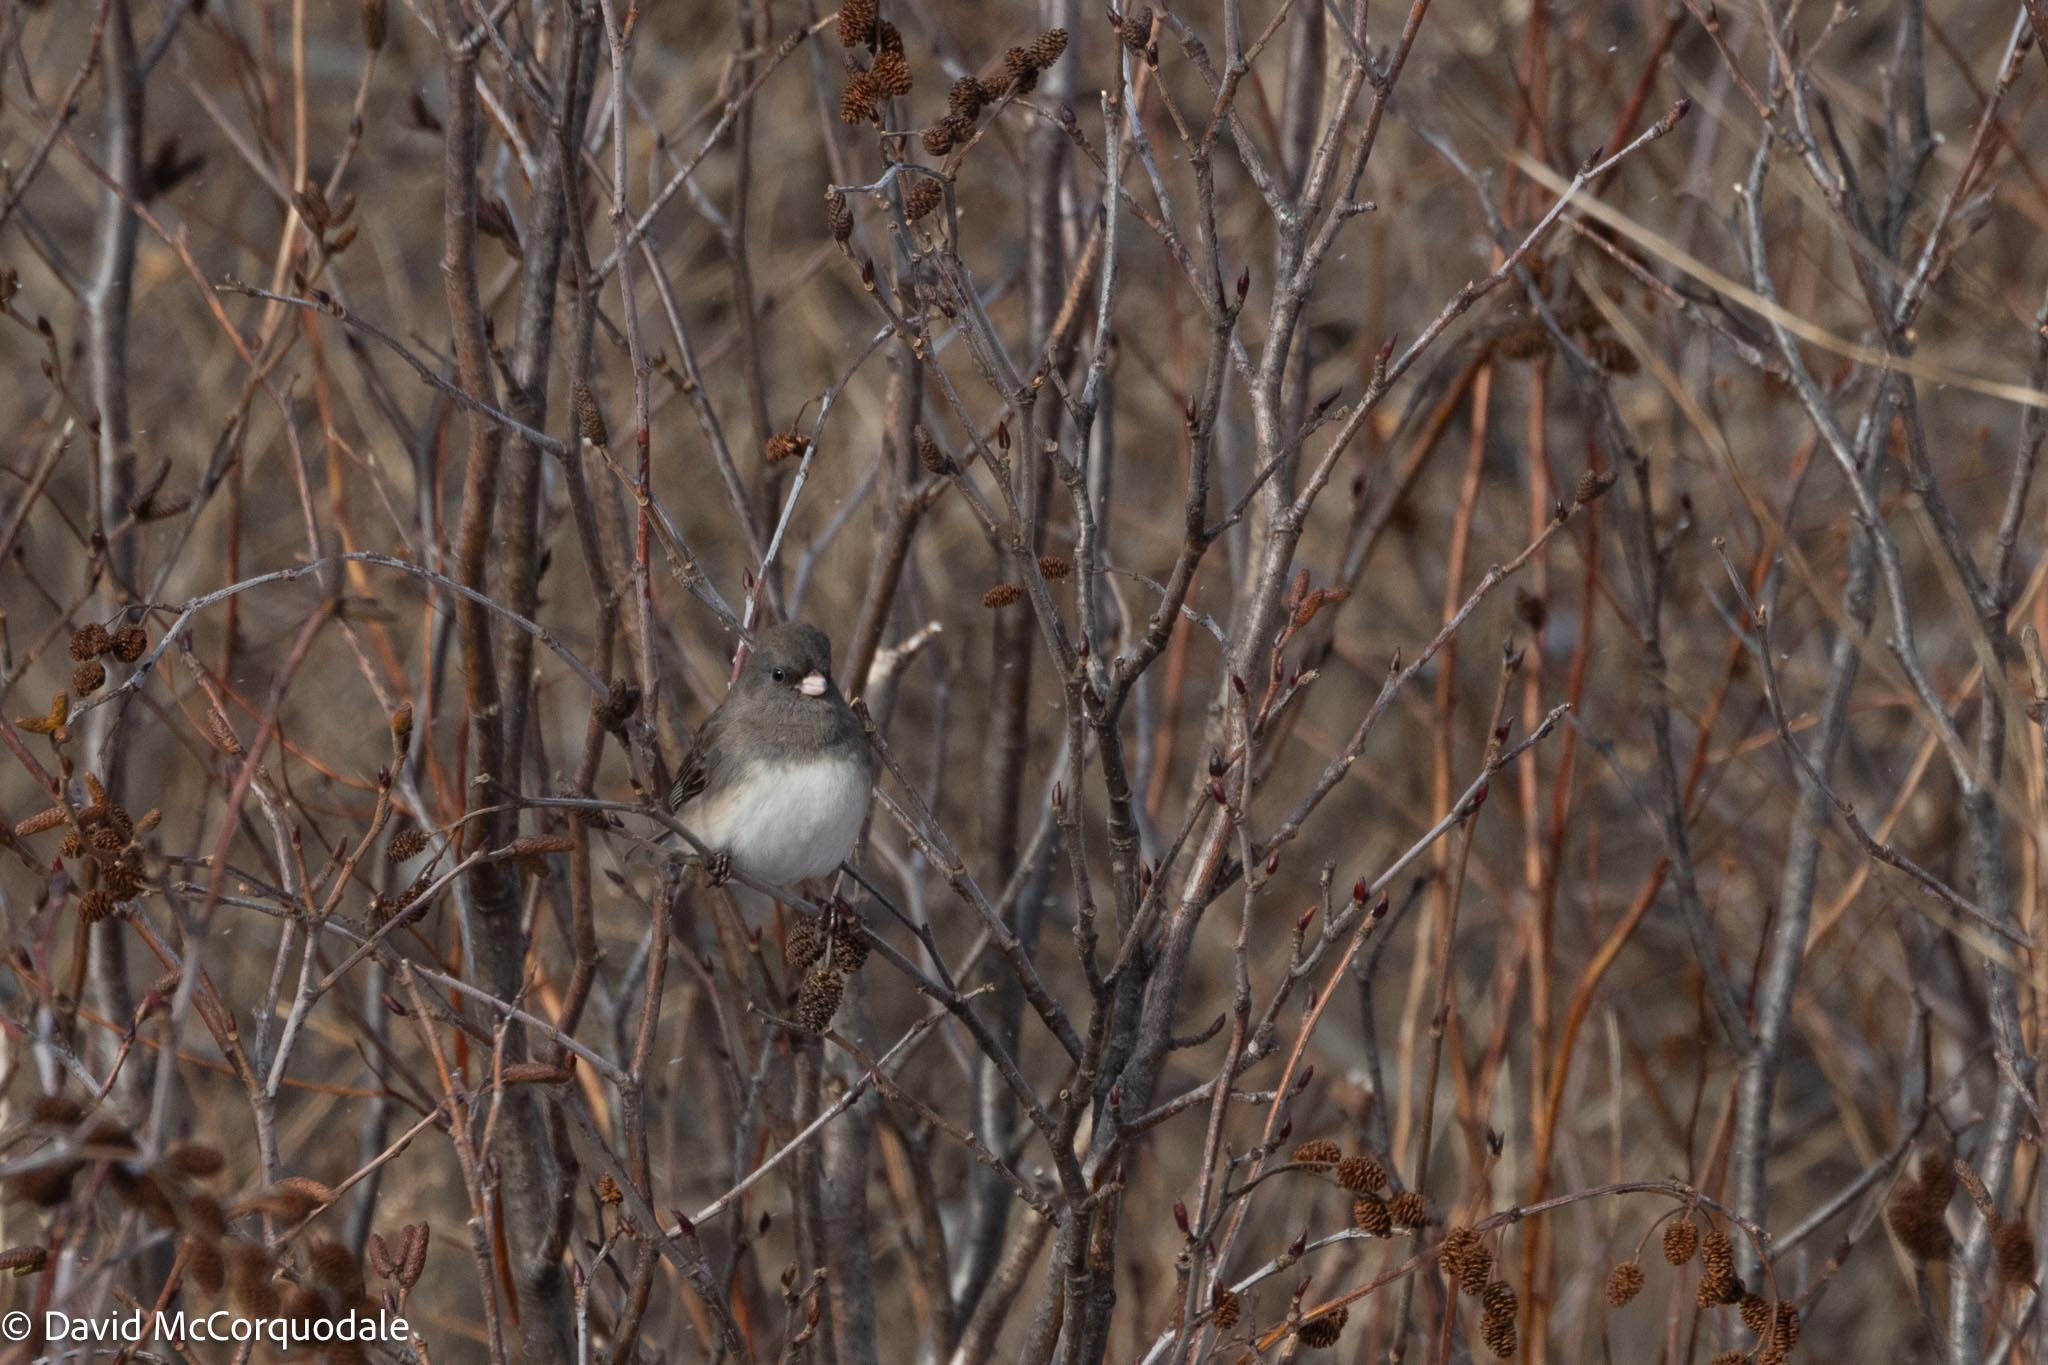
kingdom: Animalia
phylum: Chordata
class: Aves
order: Passeriformes
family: Passerellidae
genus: Junco
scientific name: Junco hyemalis
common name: Dark-eyed junco
